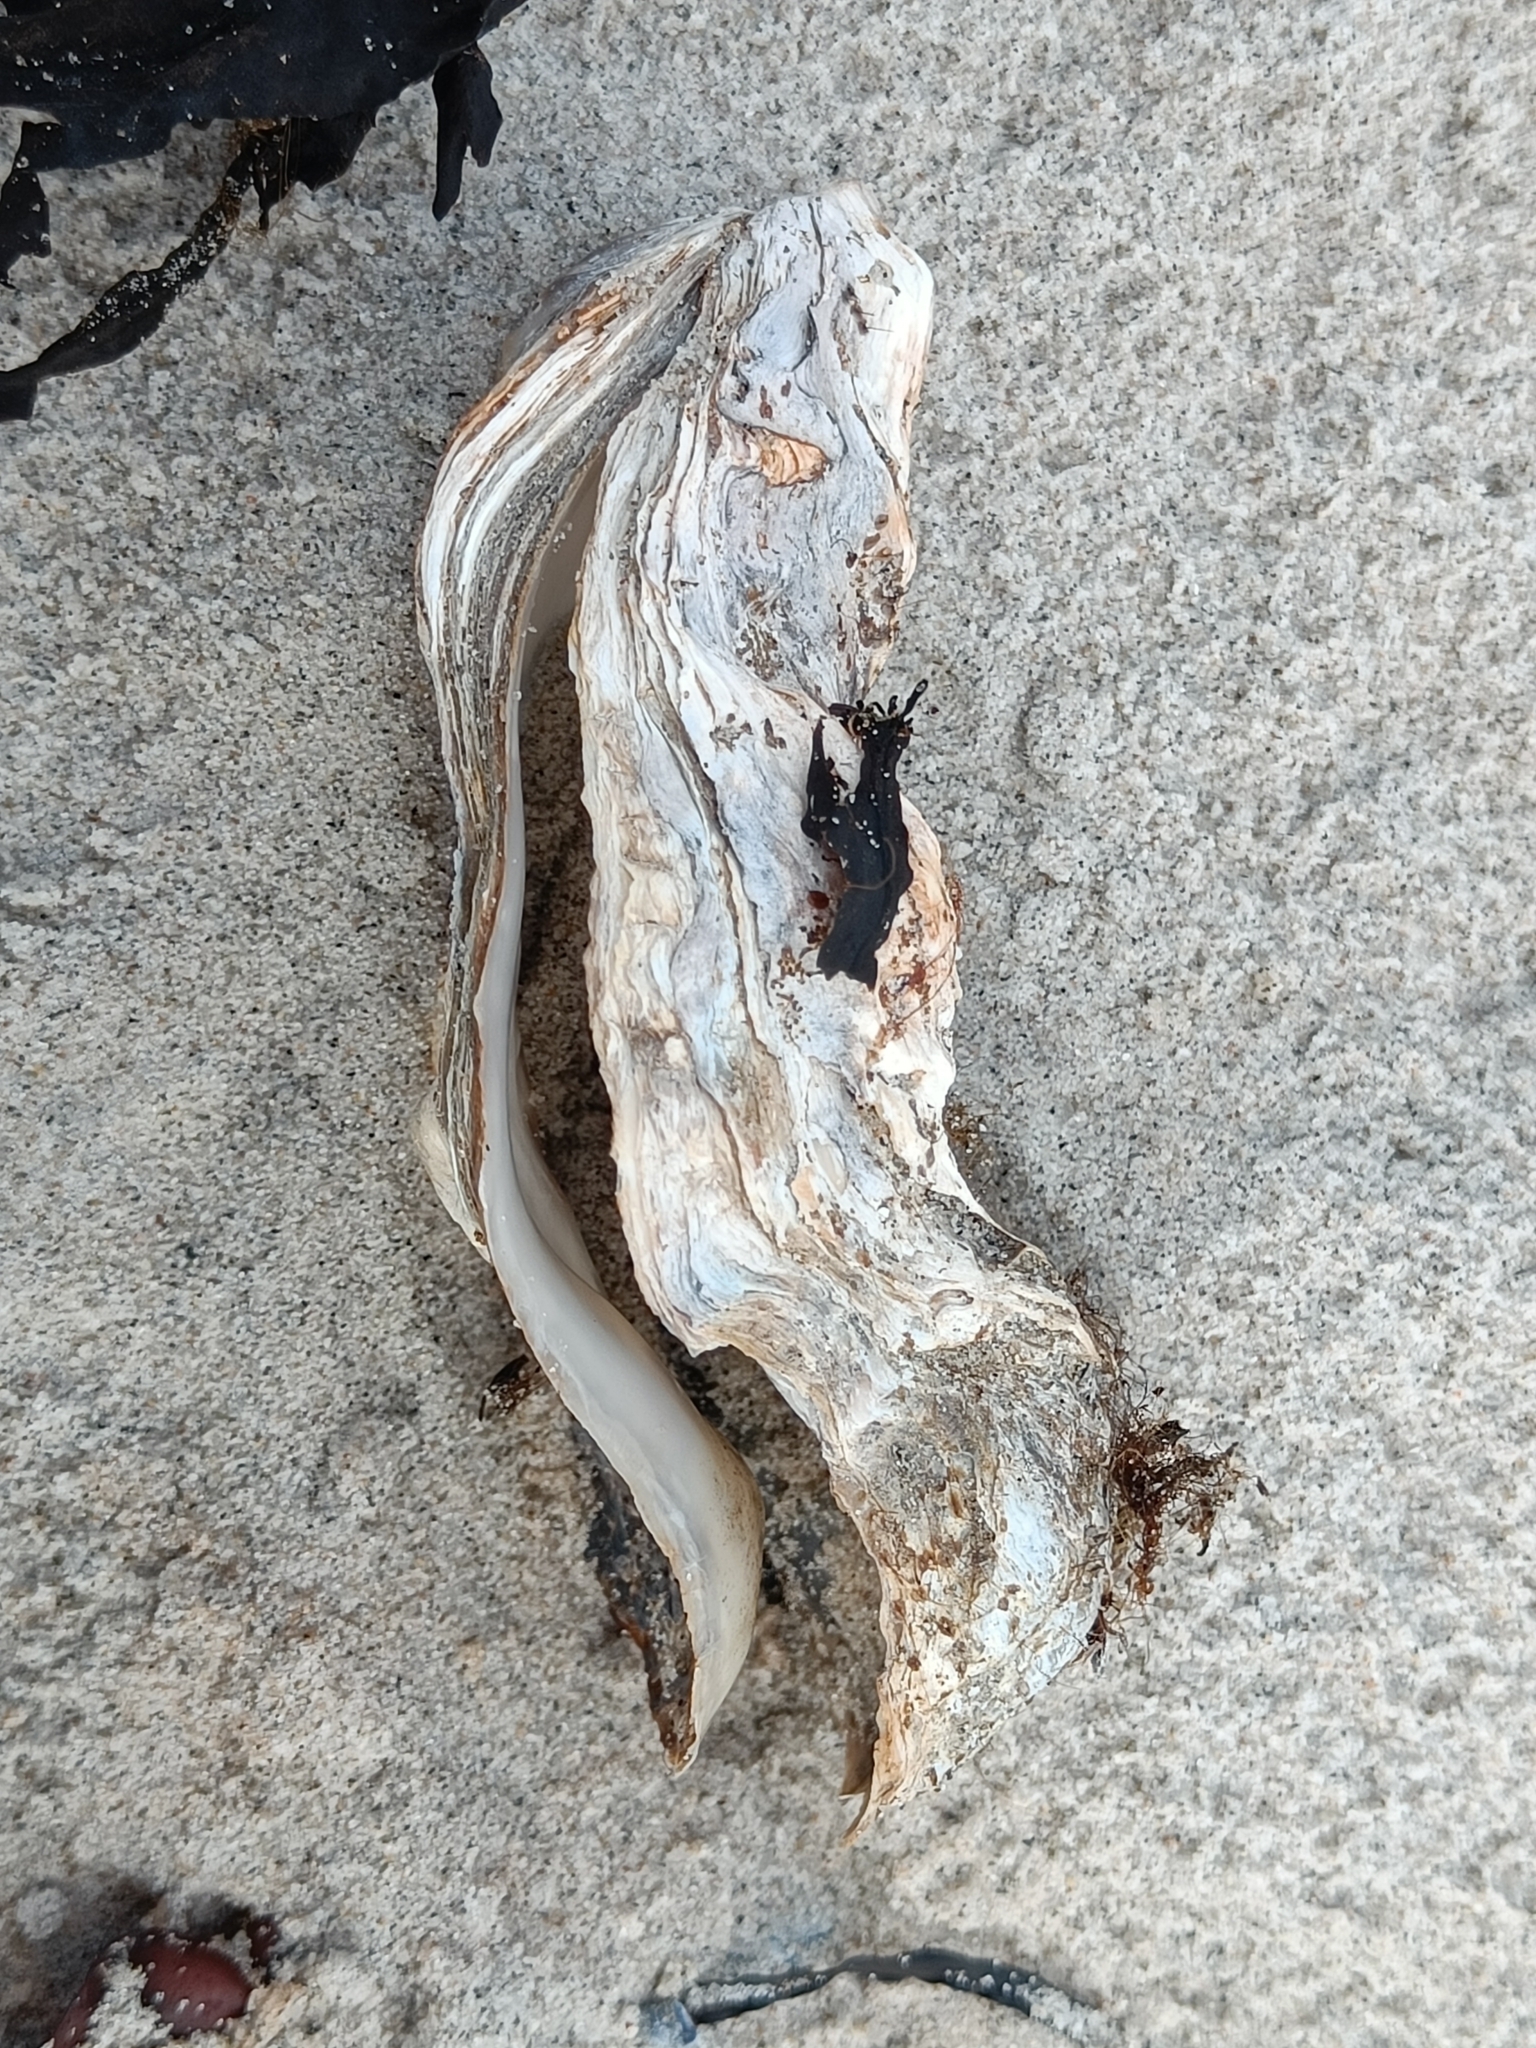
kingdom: Animalia
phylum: Mollusca
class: Bivalvia
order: Ostreida
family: Ostreidae
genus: Magallana
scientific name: Magallana gigas
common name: Pacific oyster
